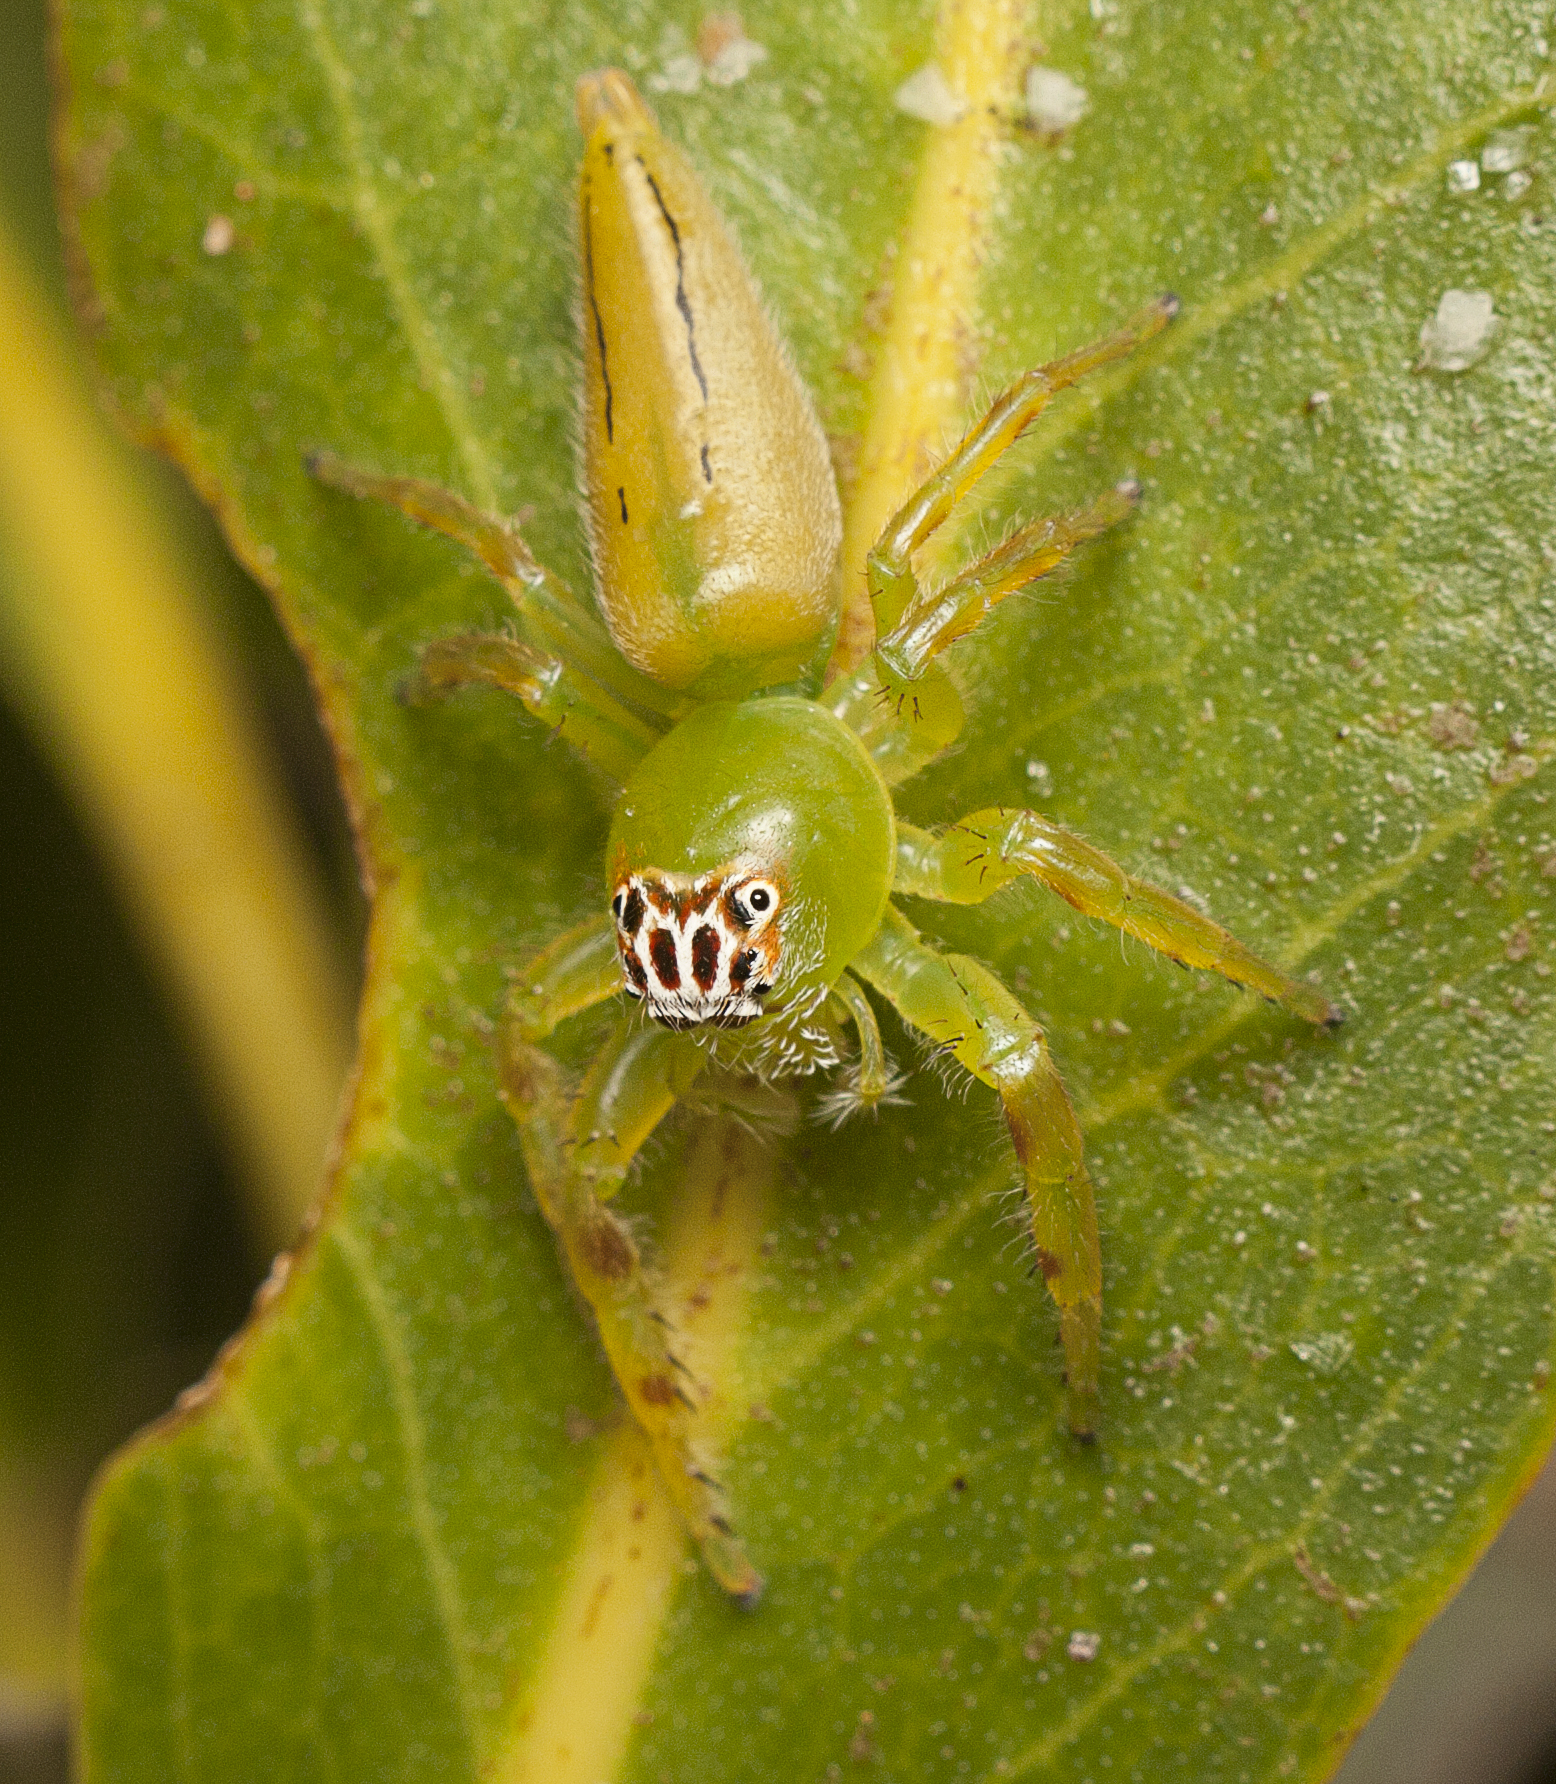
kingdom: Animalia
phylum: Arthropoda
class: Arachnida
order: Araneae
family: Salticidae
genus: Mopsus
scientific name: Mopsus mormon
